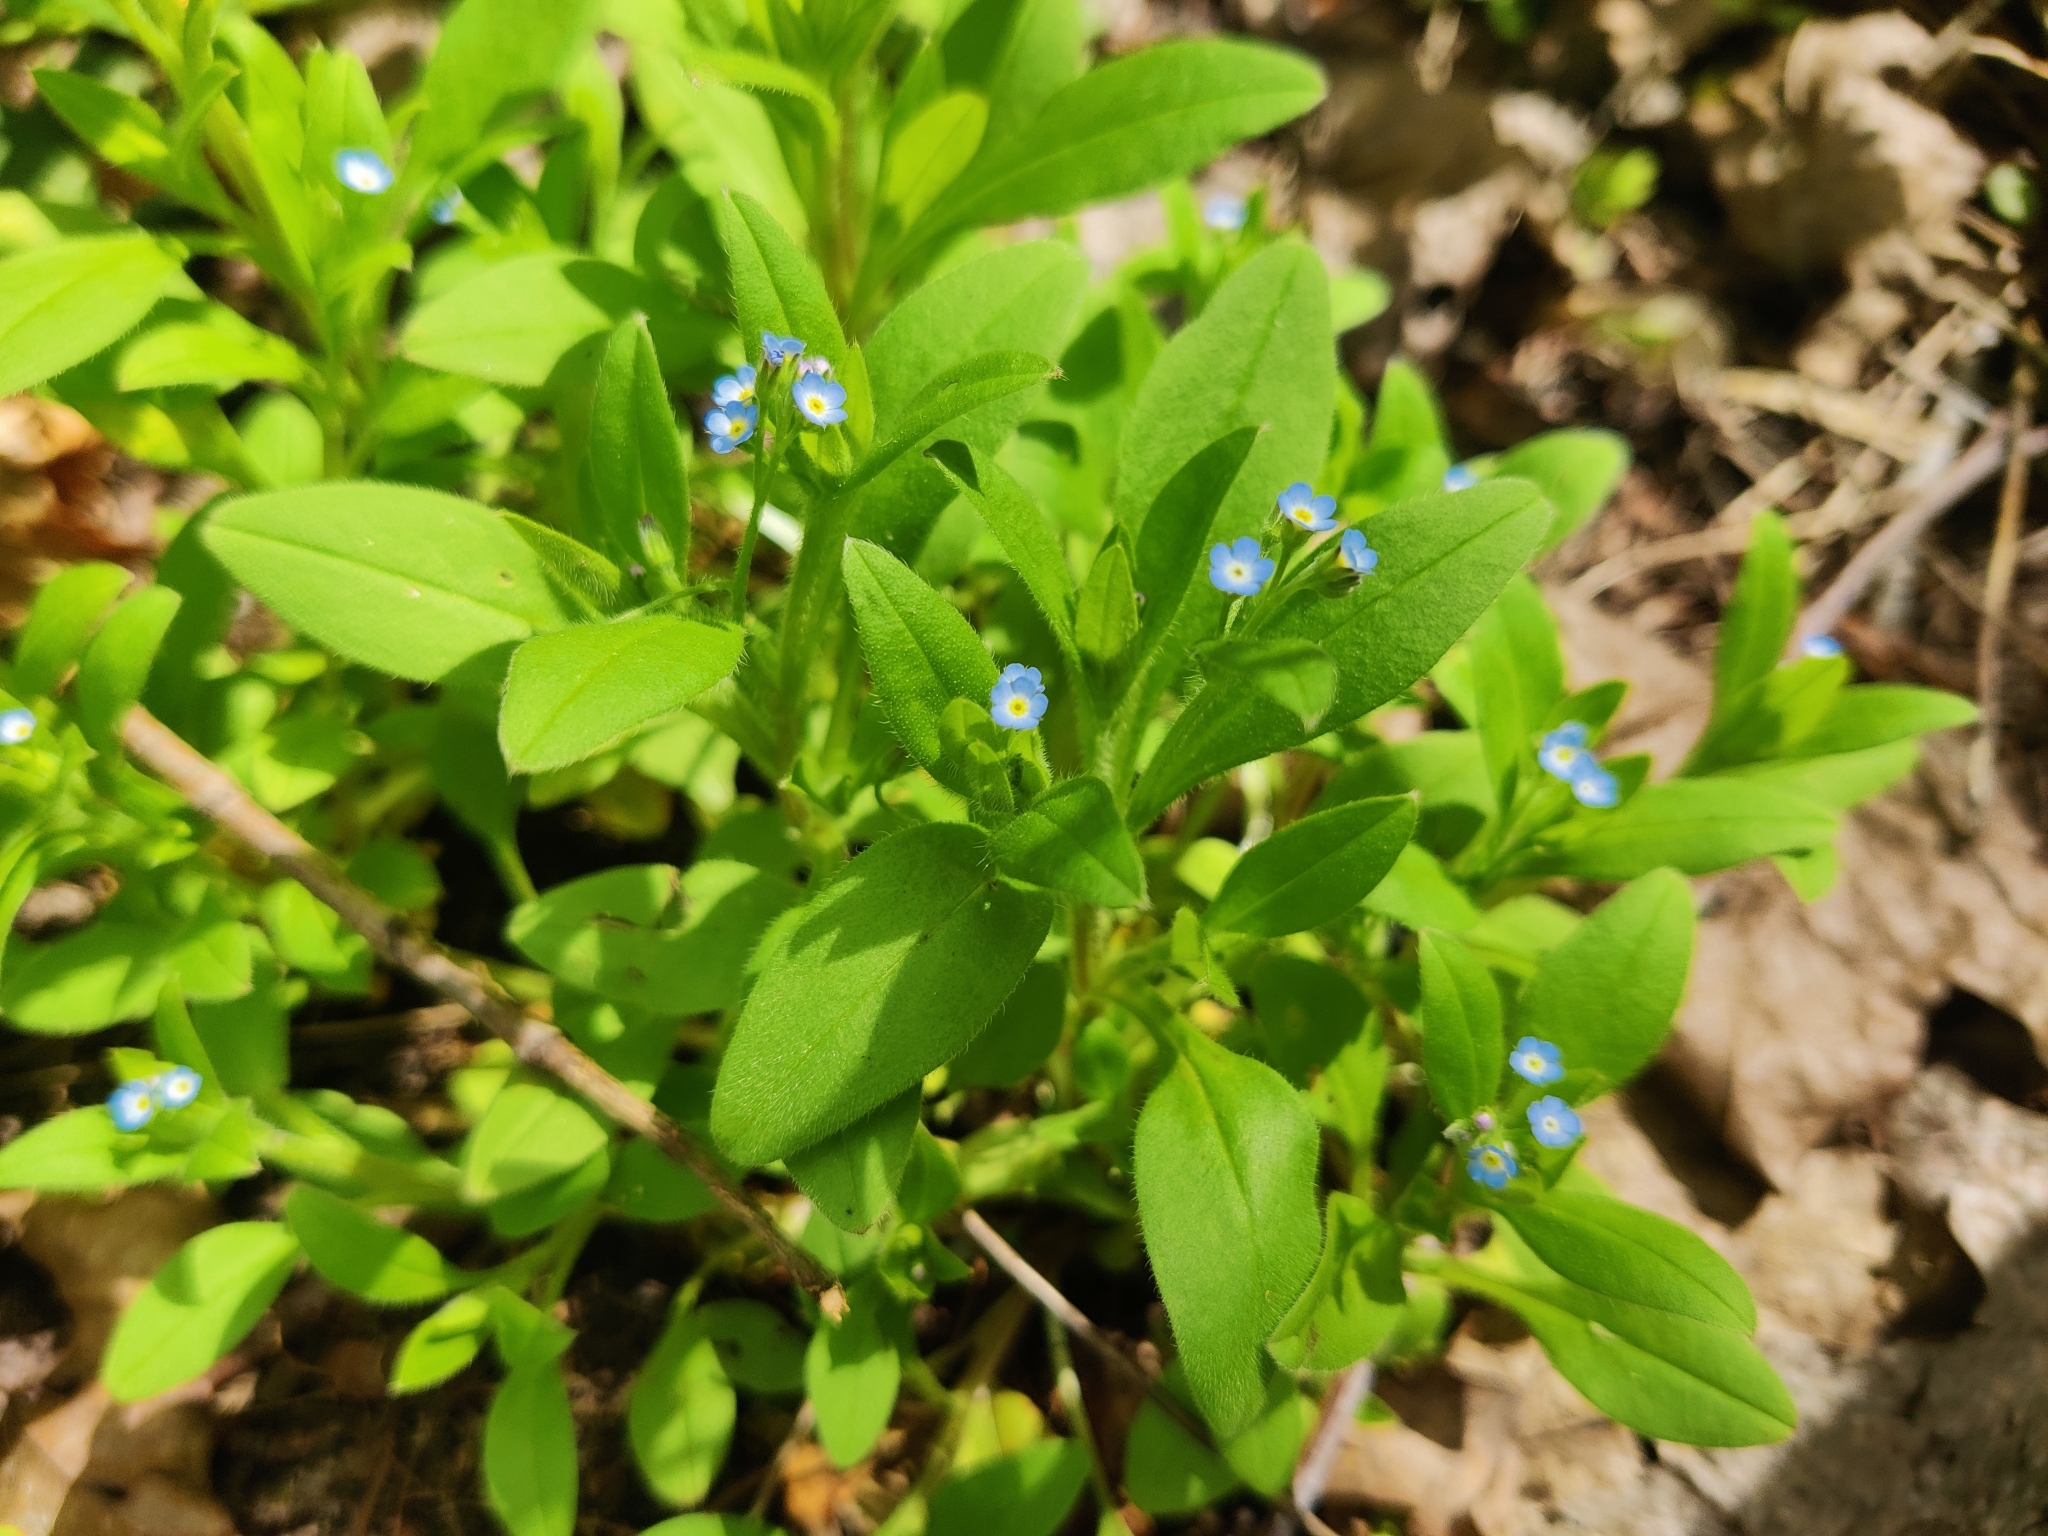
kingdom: Plantae
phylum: Tracheophyta
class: Magnoliopsida
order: Boraginales
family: Boraginaceae
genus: Myosotis
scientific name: Myosotis sparsiflora
